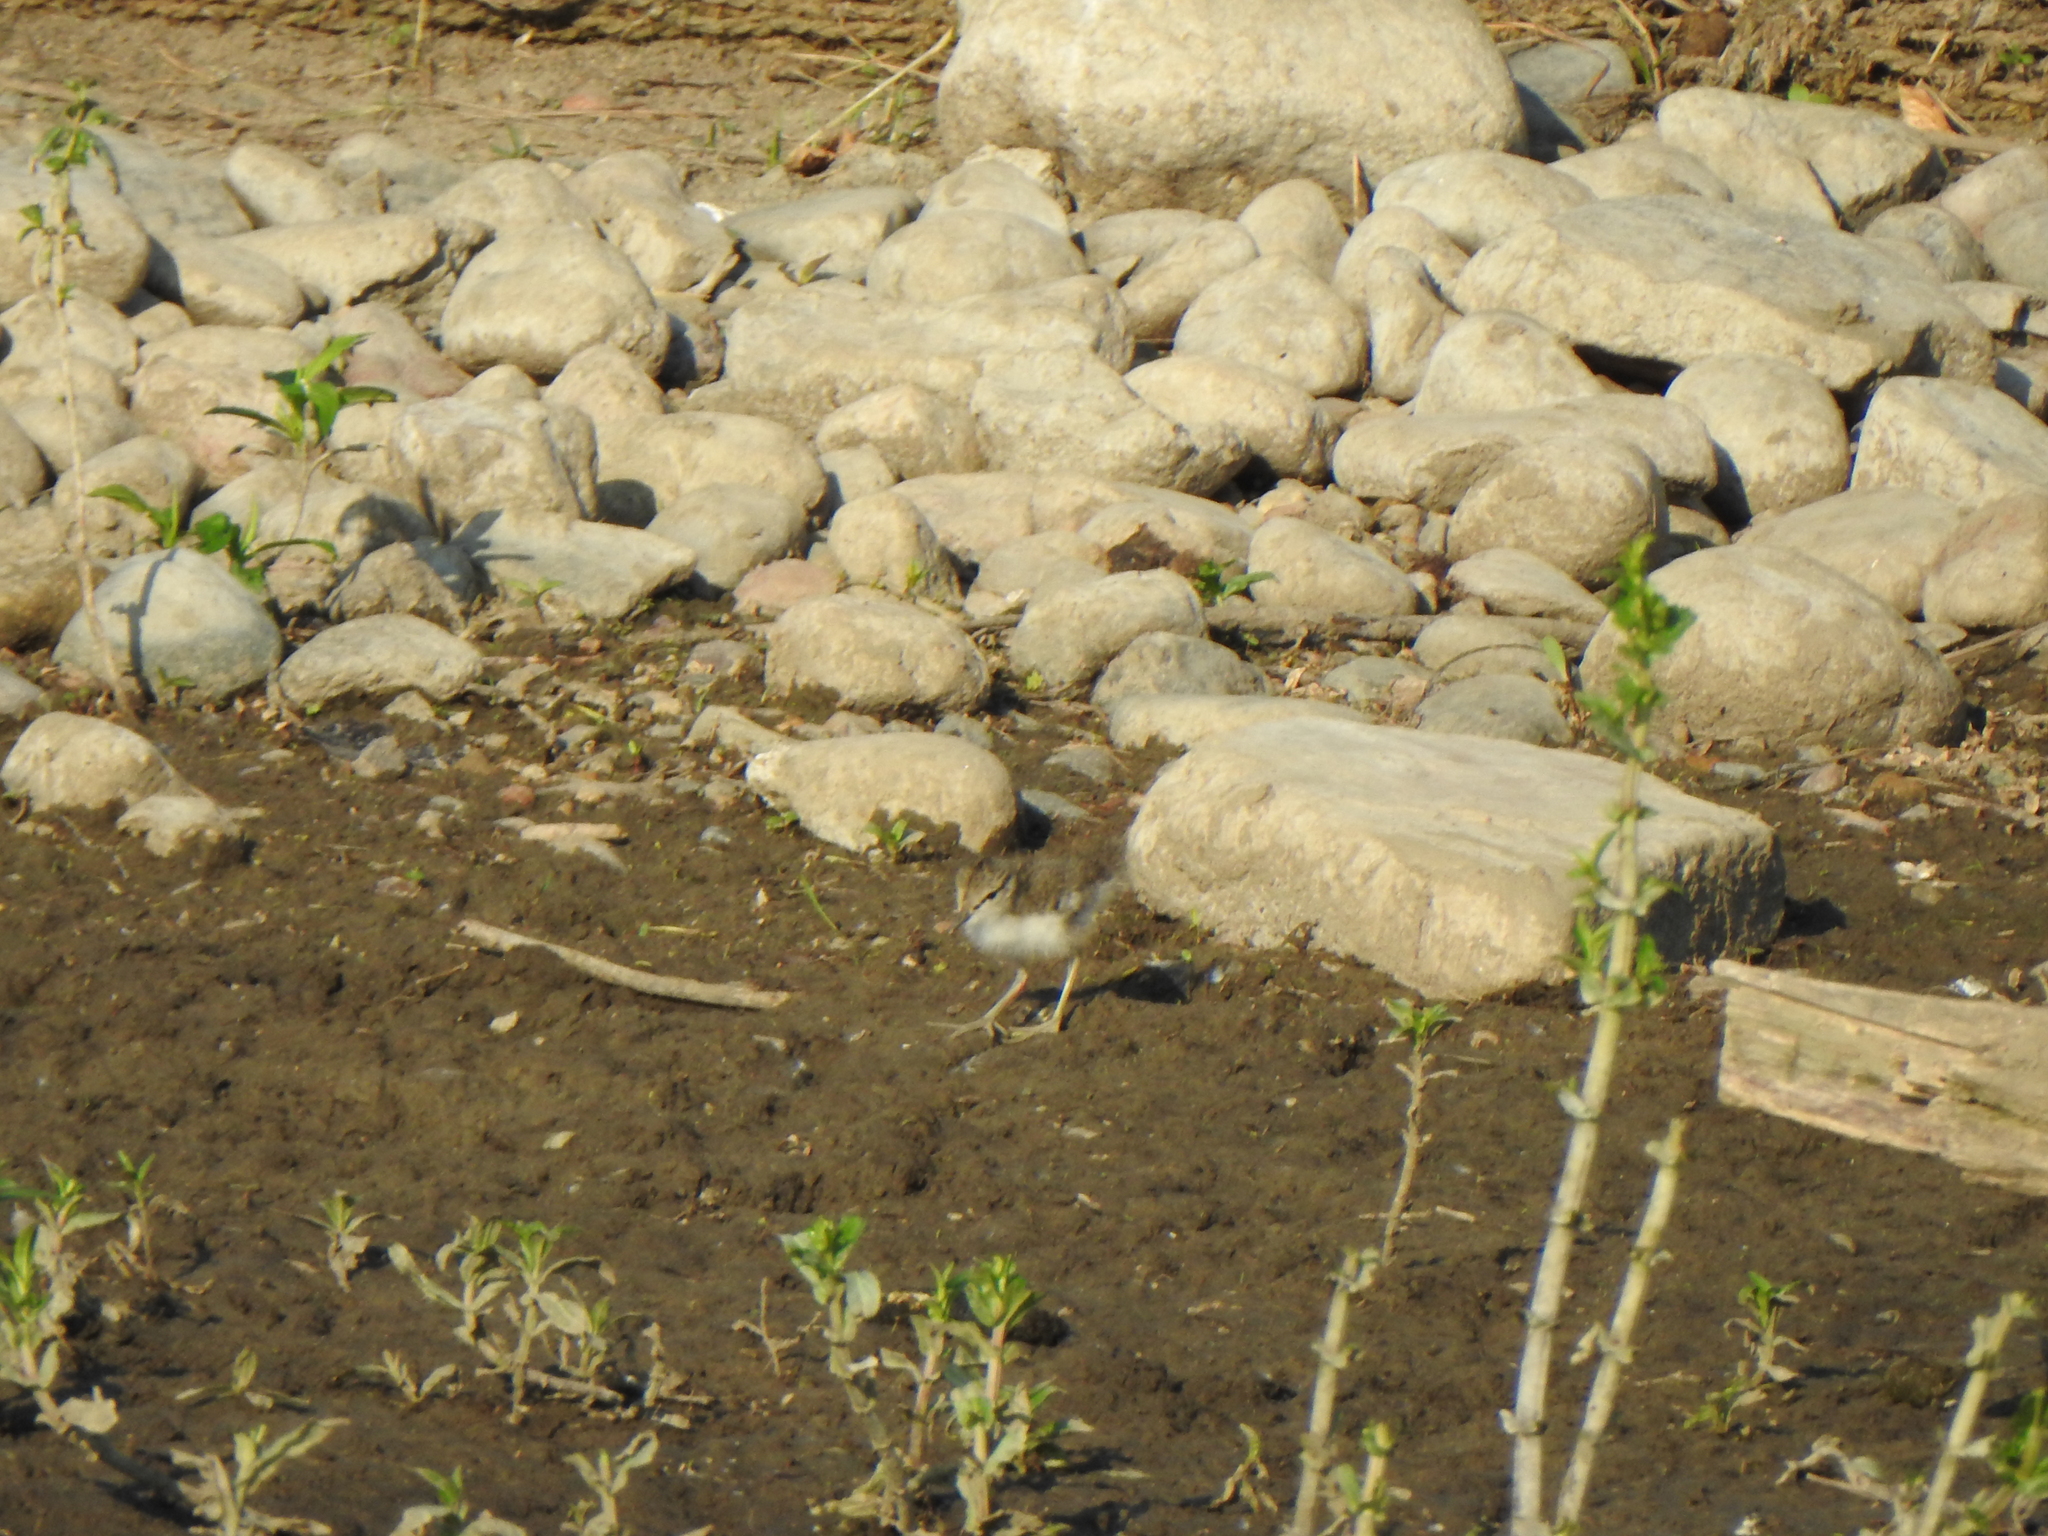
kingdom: Animalia
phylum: Chordata
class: Aves
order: Charadriiformes
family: Scolopacidae
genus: Actitis
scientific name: Actitis macularius
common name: Spotted sandpiper
